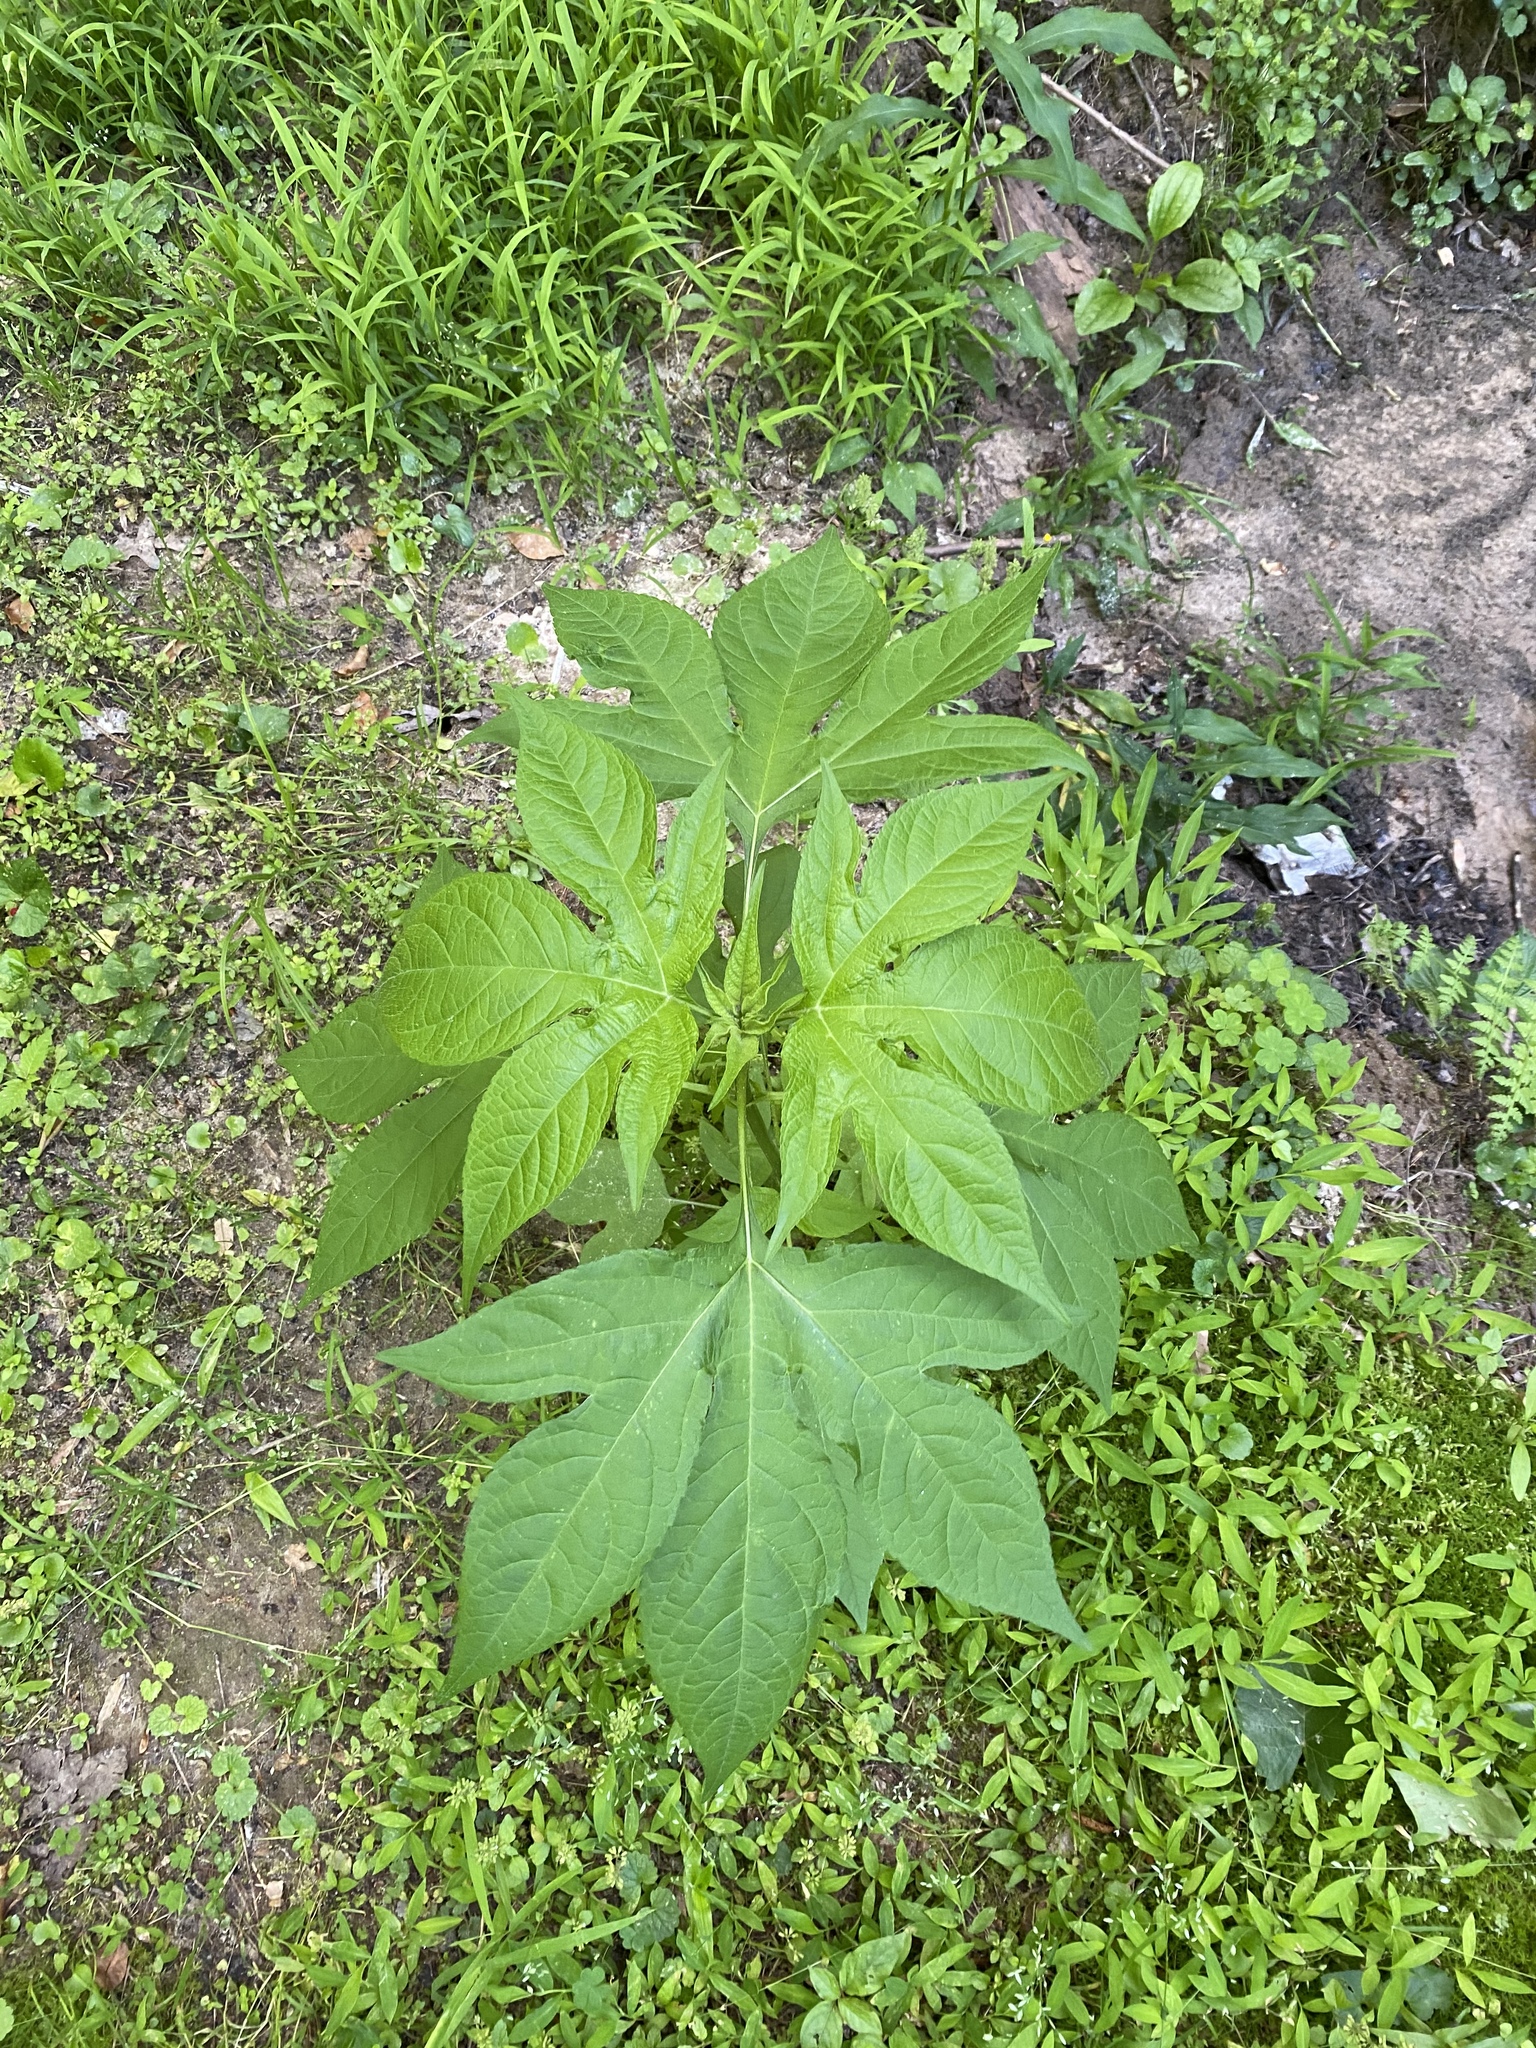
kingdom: Plantae
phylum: Tracheophyta
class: Magnoliopsida
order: Asterales
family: Asteraceae
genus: Ambrosia
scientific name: Ambrosia trifida
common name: Giant ragweed
